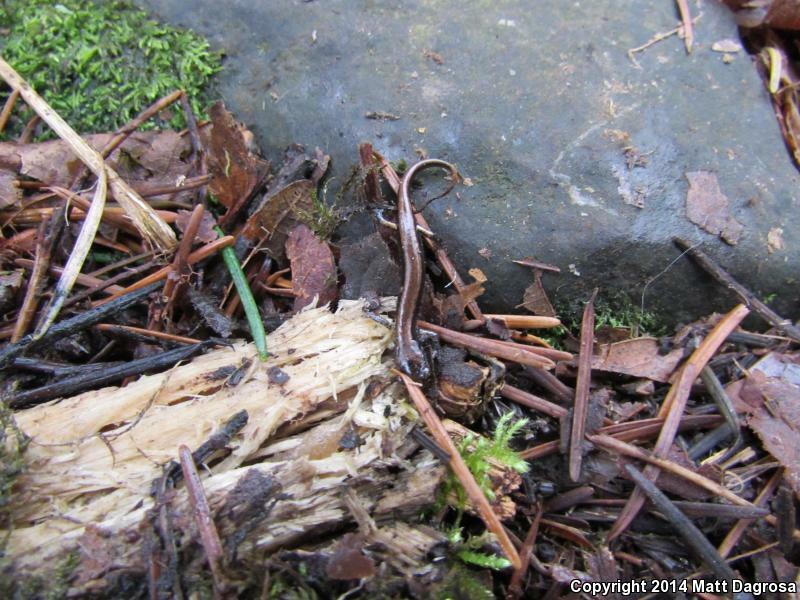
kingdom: Animalia
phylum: Chordata
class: Amphibia
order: Caudata
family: Plethodontidae
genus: Plethodon
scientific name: Plethodon vehiculum
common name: Western red-backed salamander
